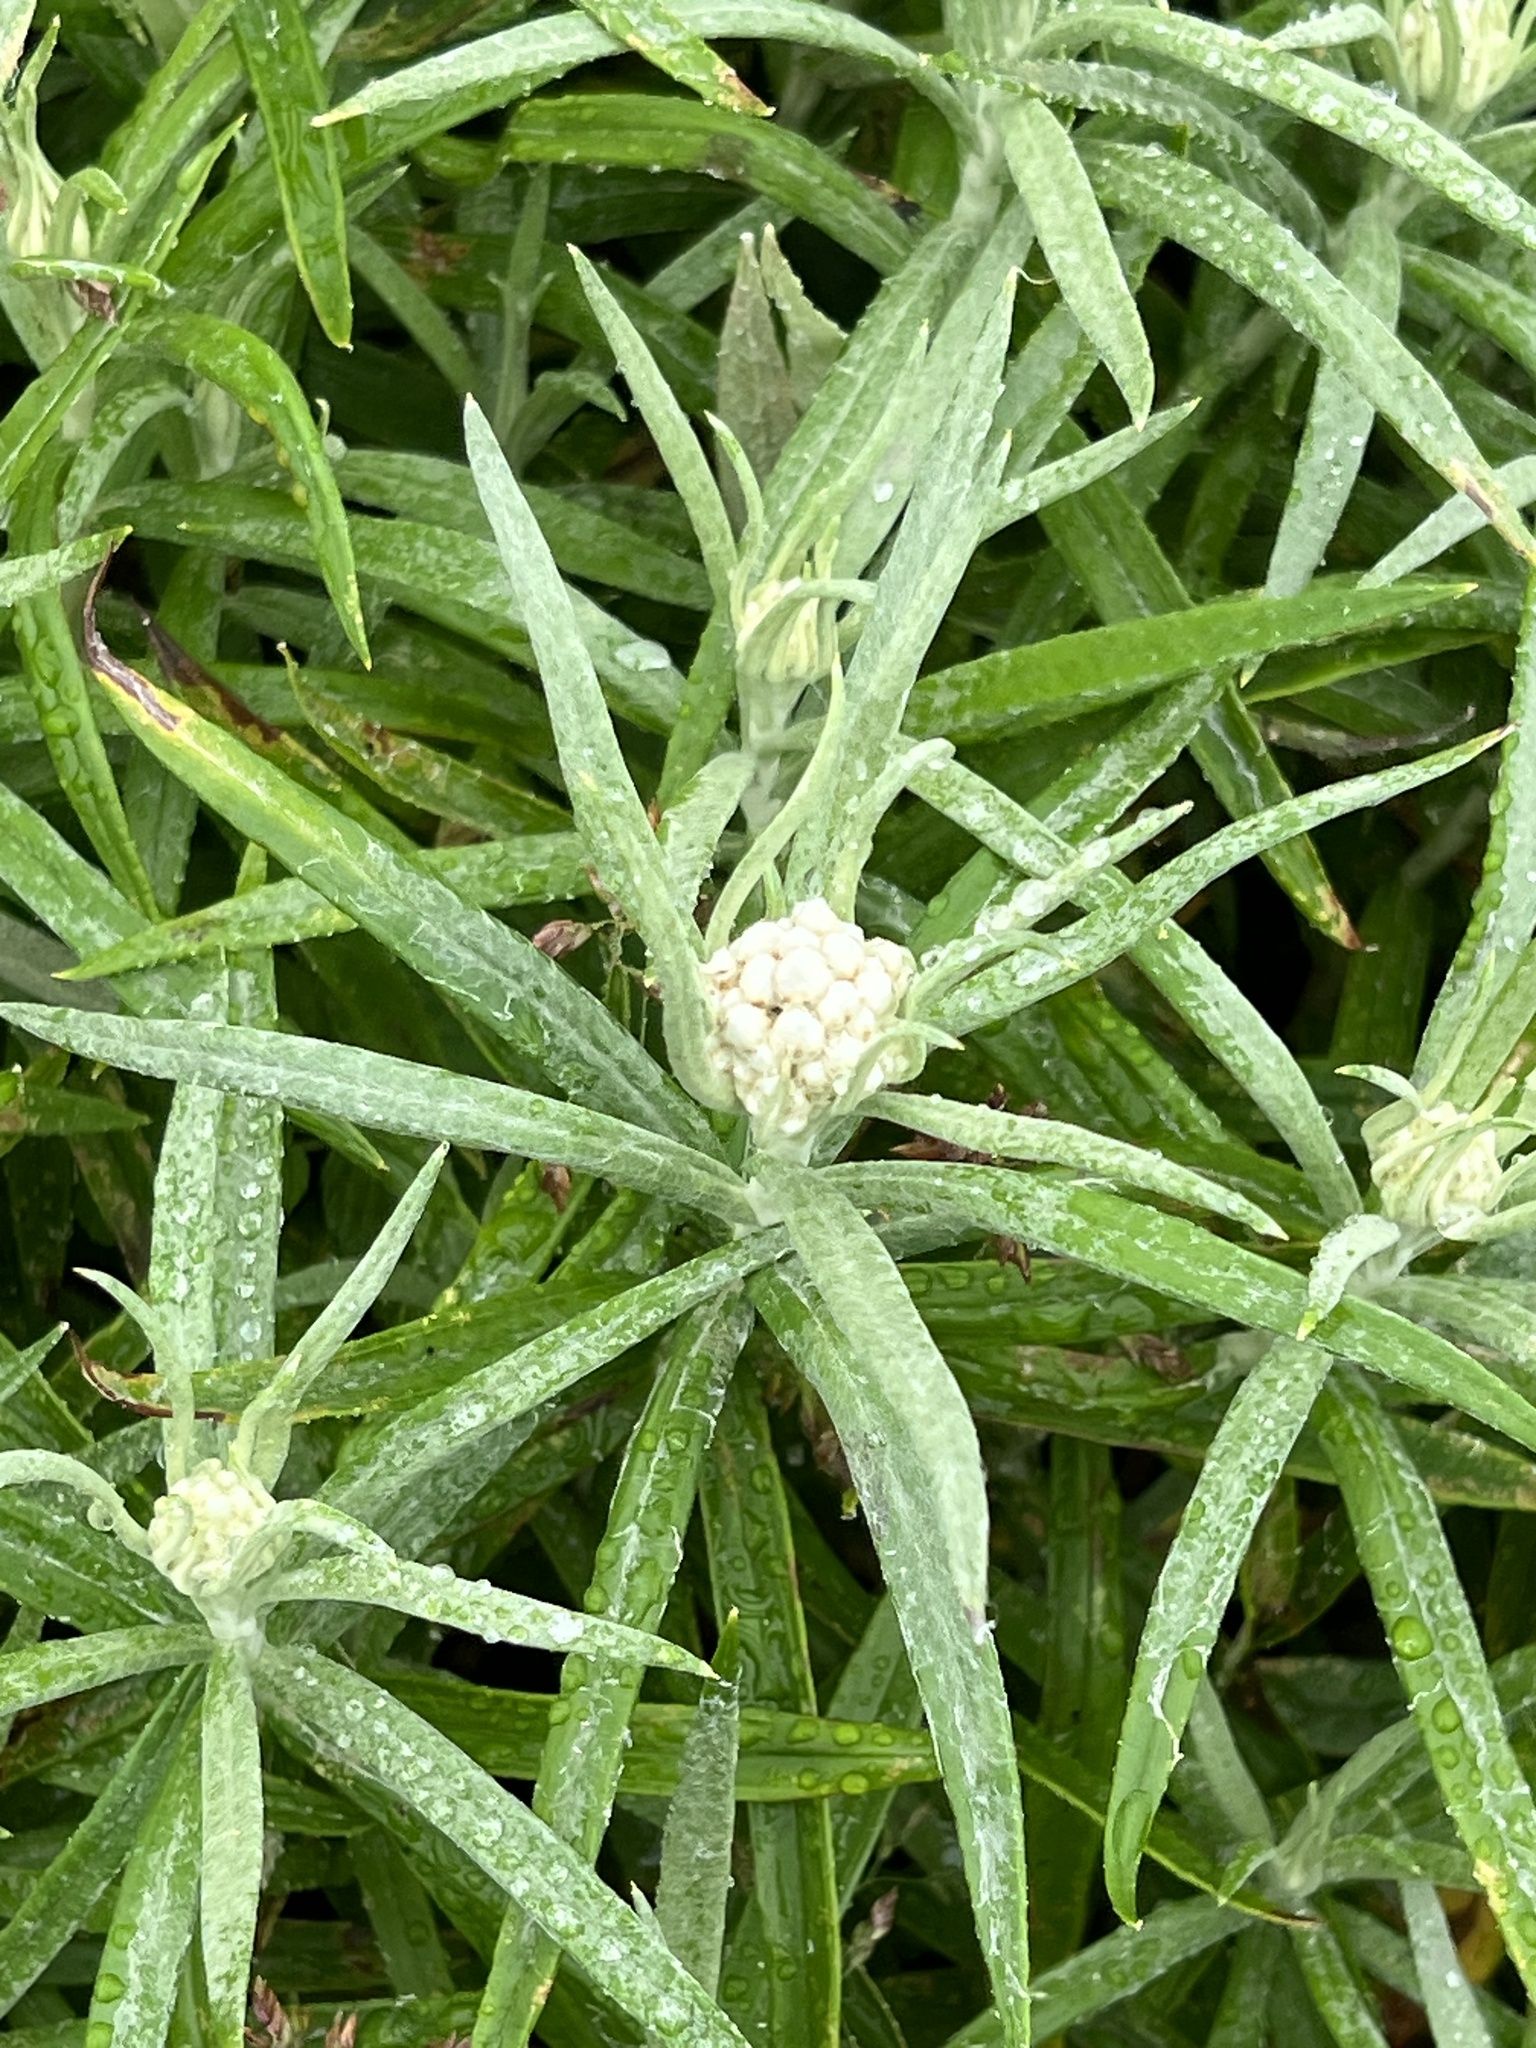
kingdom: Plantae
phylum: Tracheophyta
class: Magnoliopsida
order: Asterales
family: Asteraceae
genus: Anaphalis
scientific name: Anaphalis margaritacea
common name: Pearly everlasting
